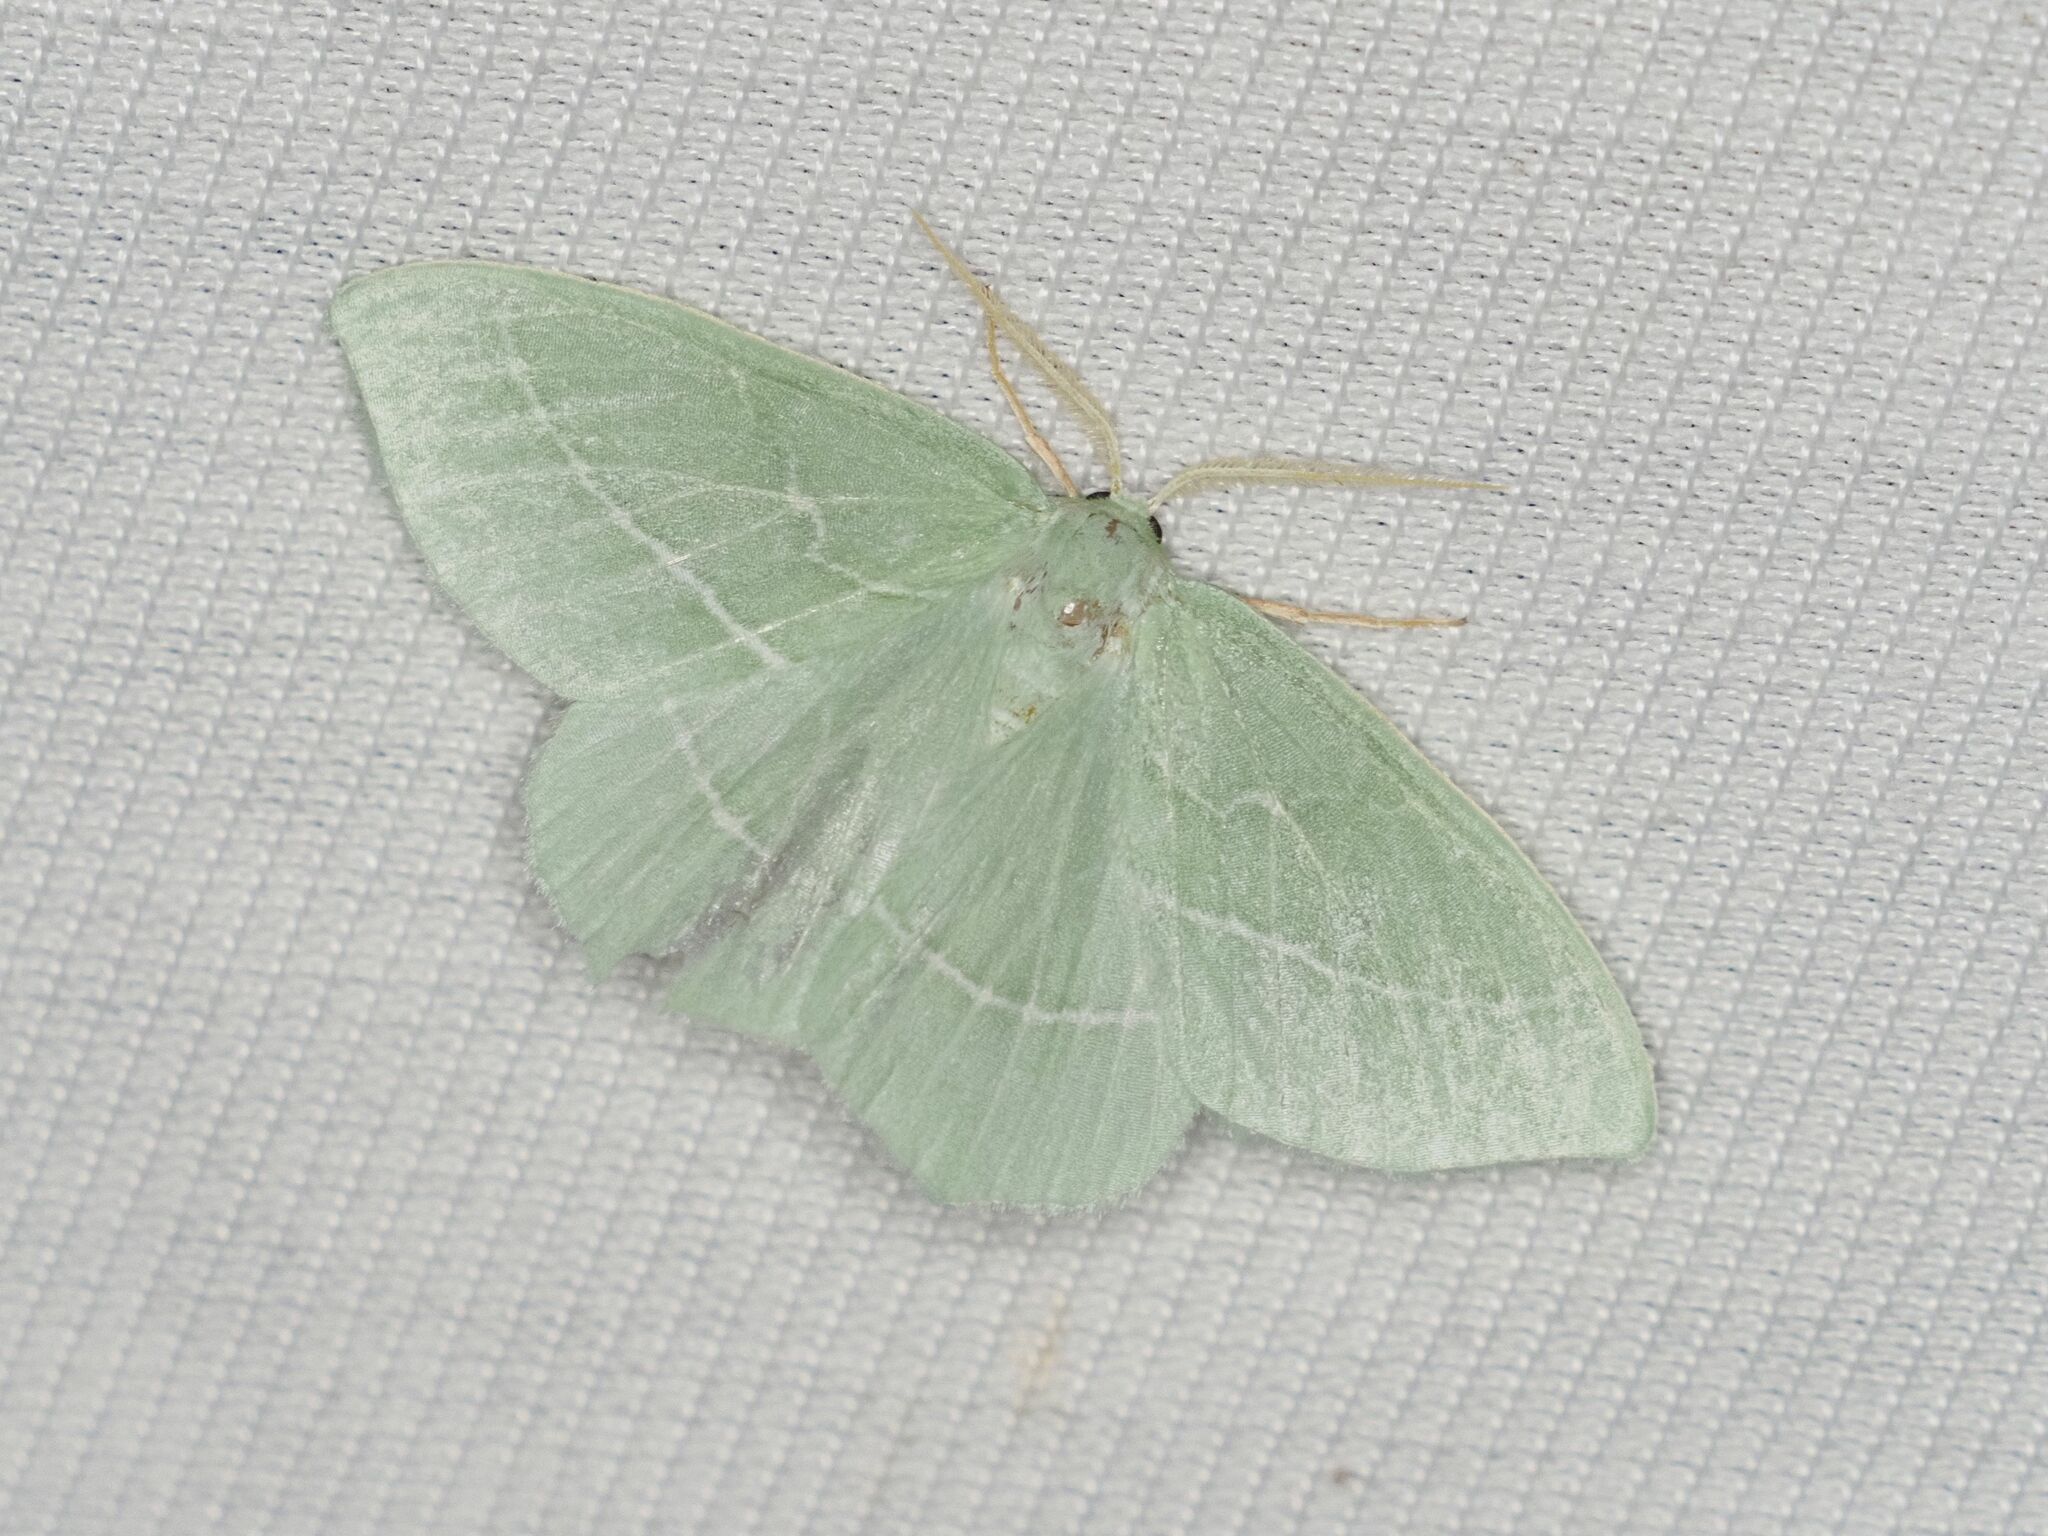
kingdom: Animalia
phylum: Arthropoda
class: Insecta
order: Lepidoptera
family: Geometridae
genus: Hemistola
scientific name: Hemistola chrysoprasaria
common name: Small emerald
